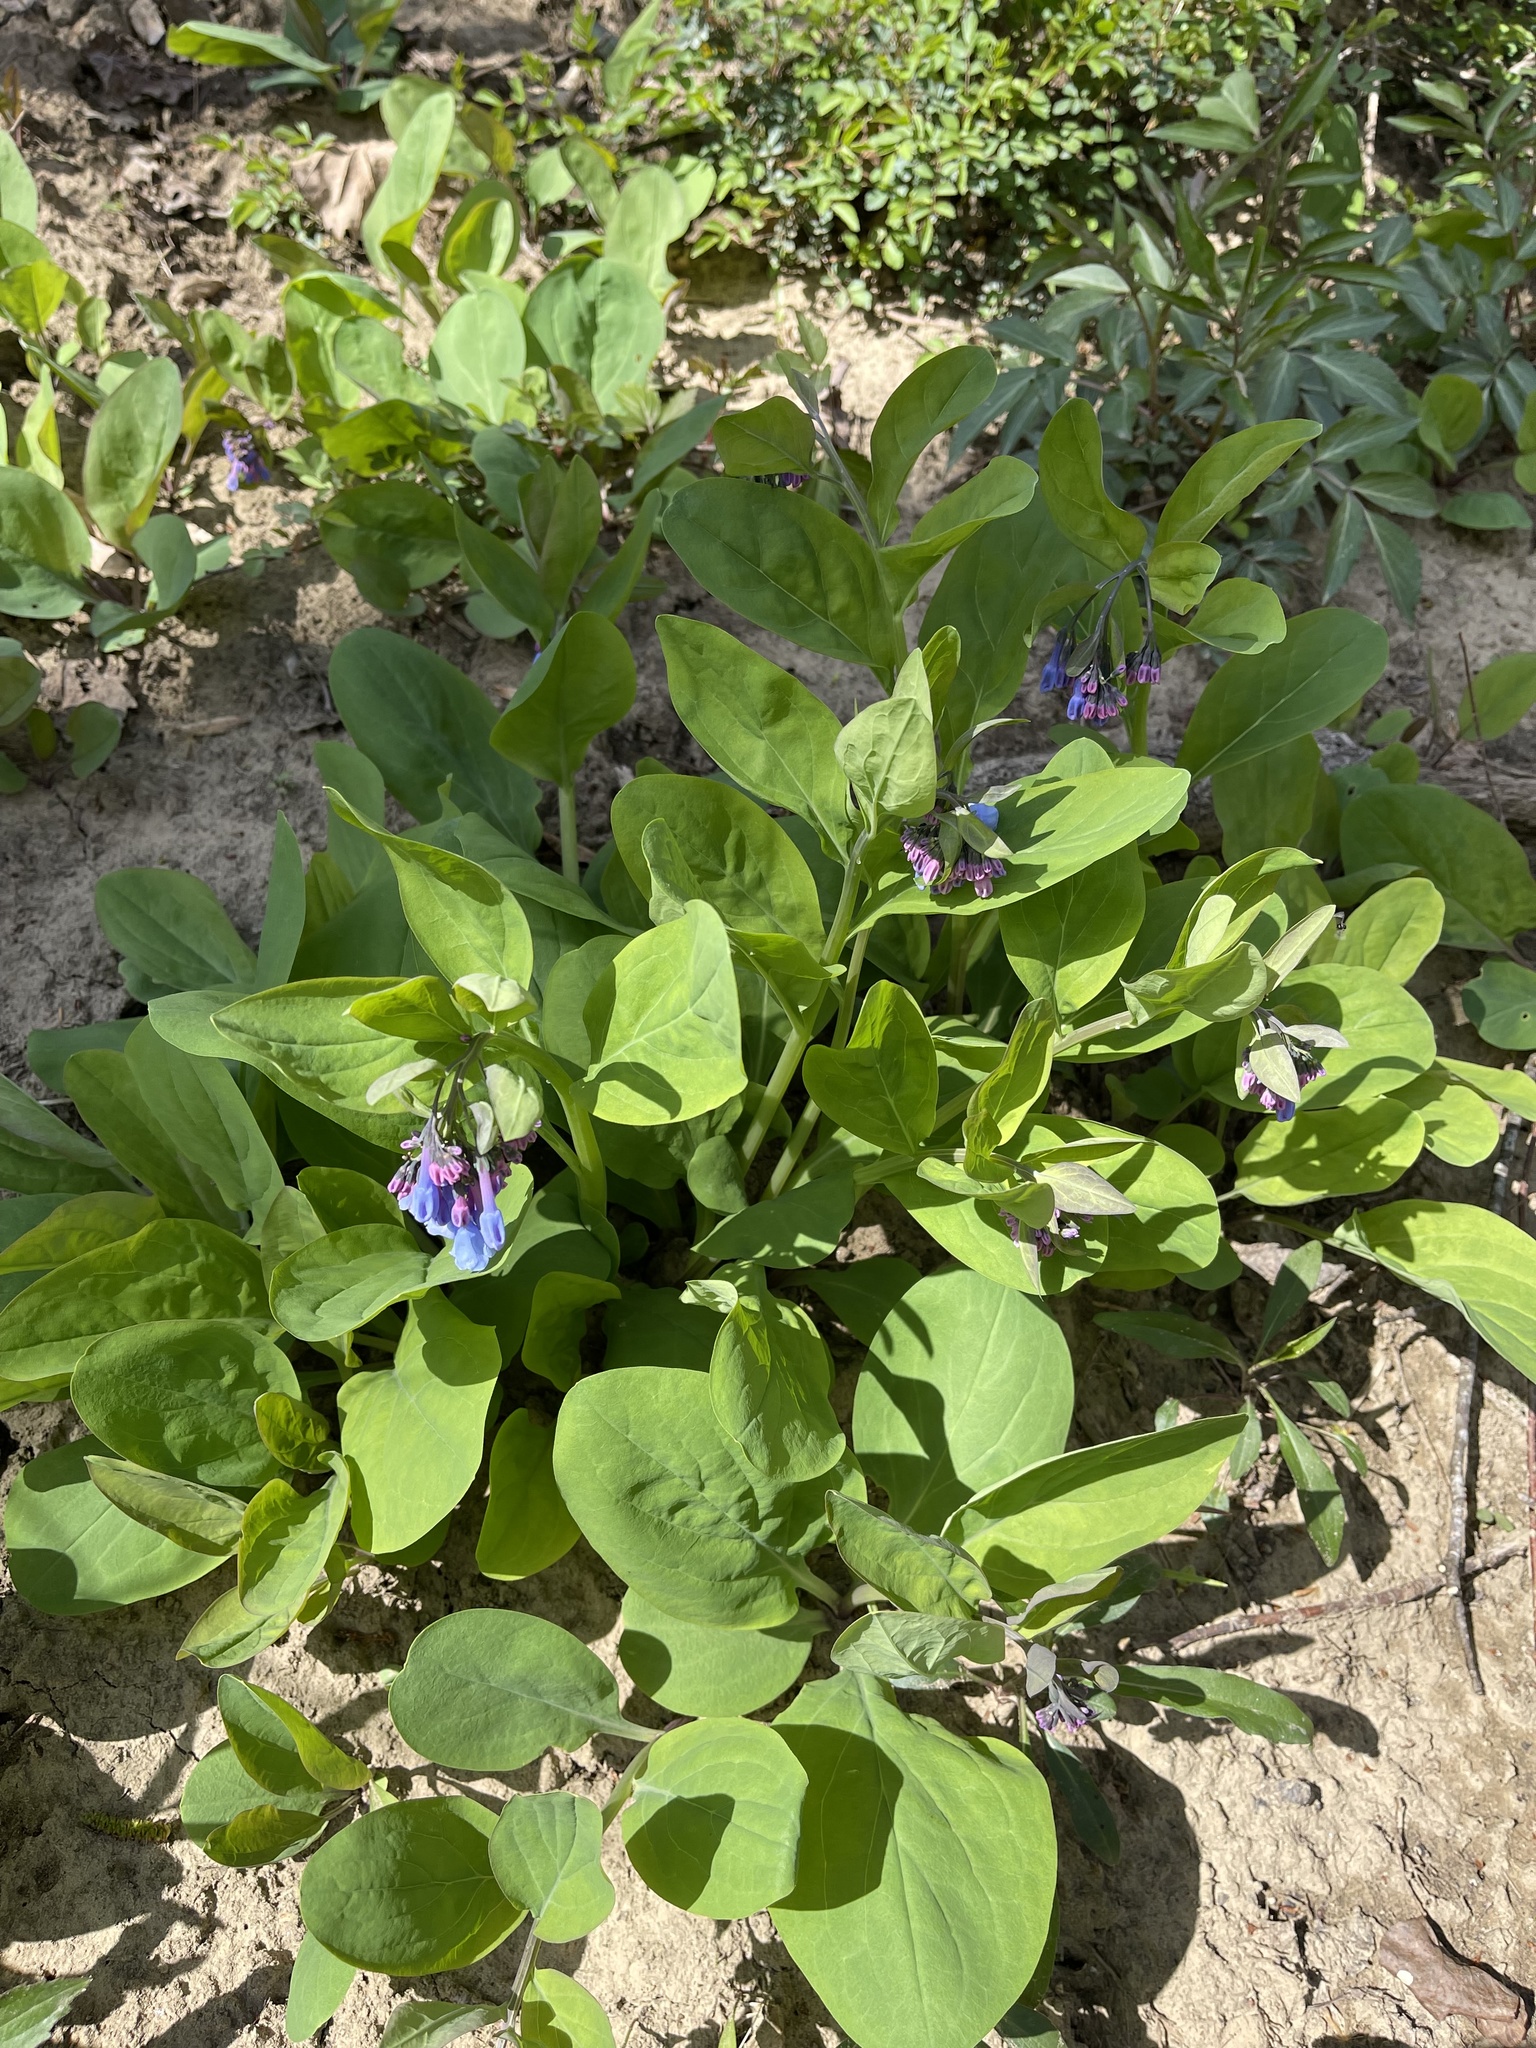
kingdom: Plantae
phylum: Tracheophyta
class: Magnoliopsida
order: Boraginales
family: Boraginaceae
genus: Mertensia
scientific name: Mertensia virginica
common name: Virginia bluebells
